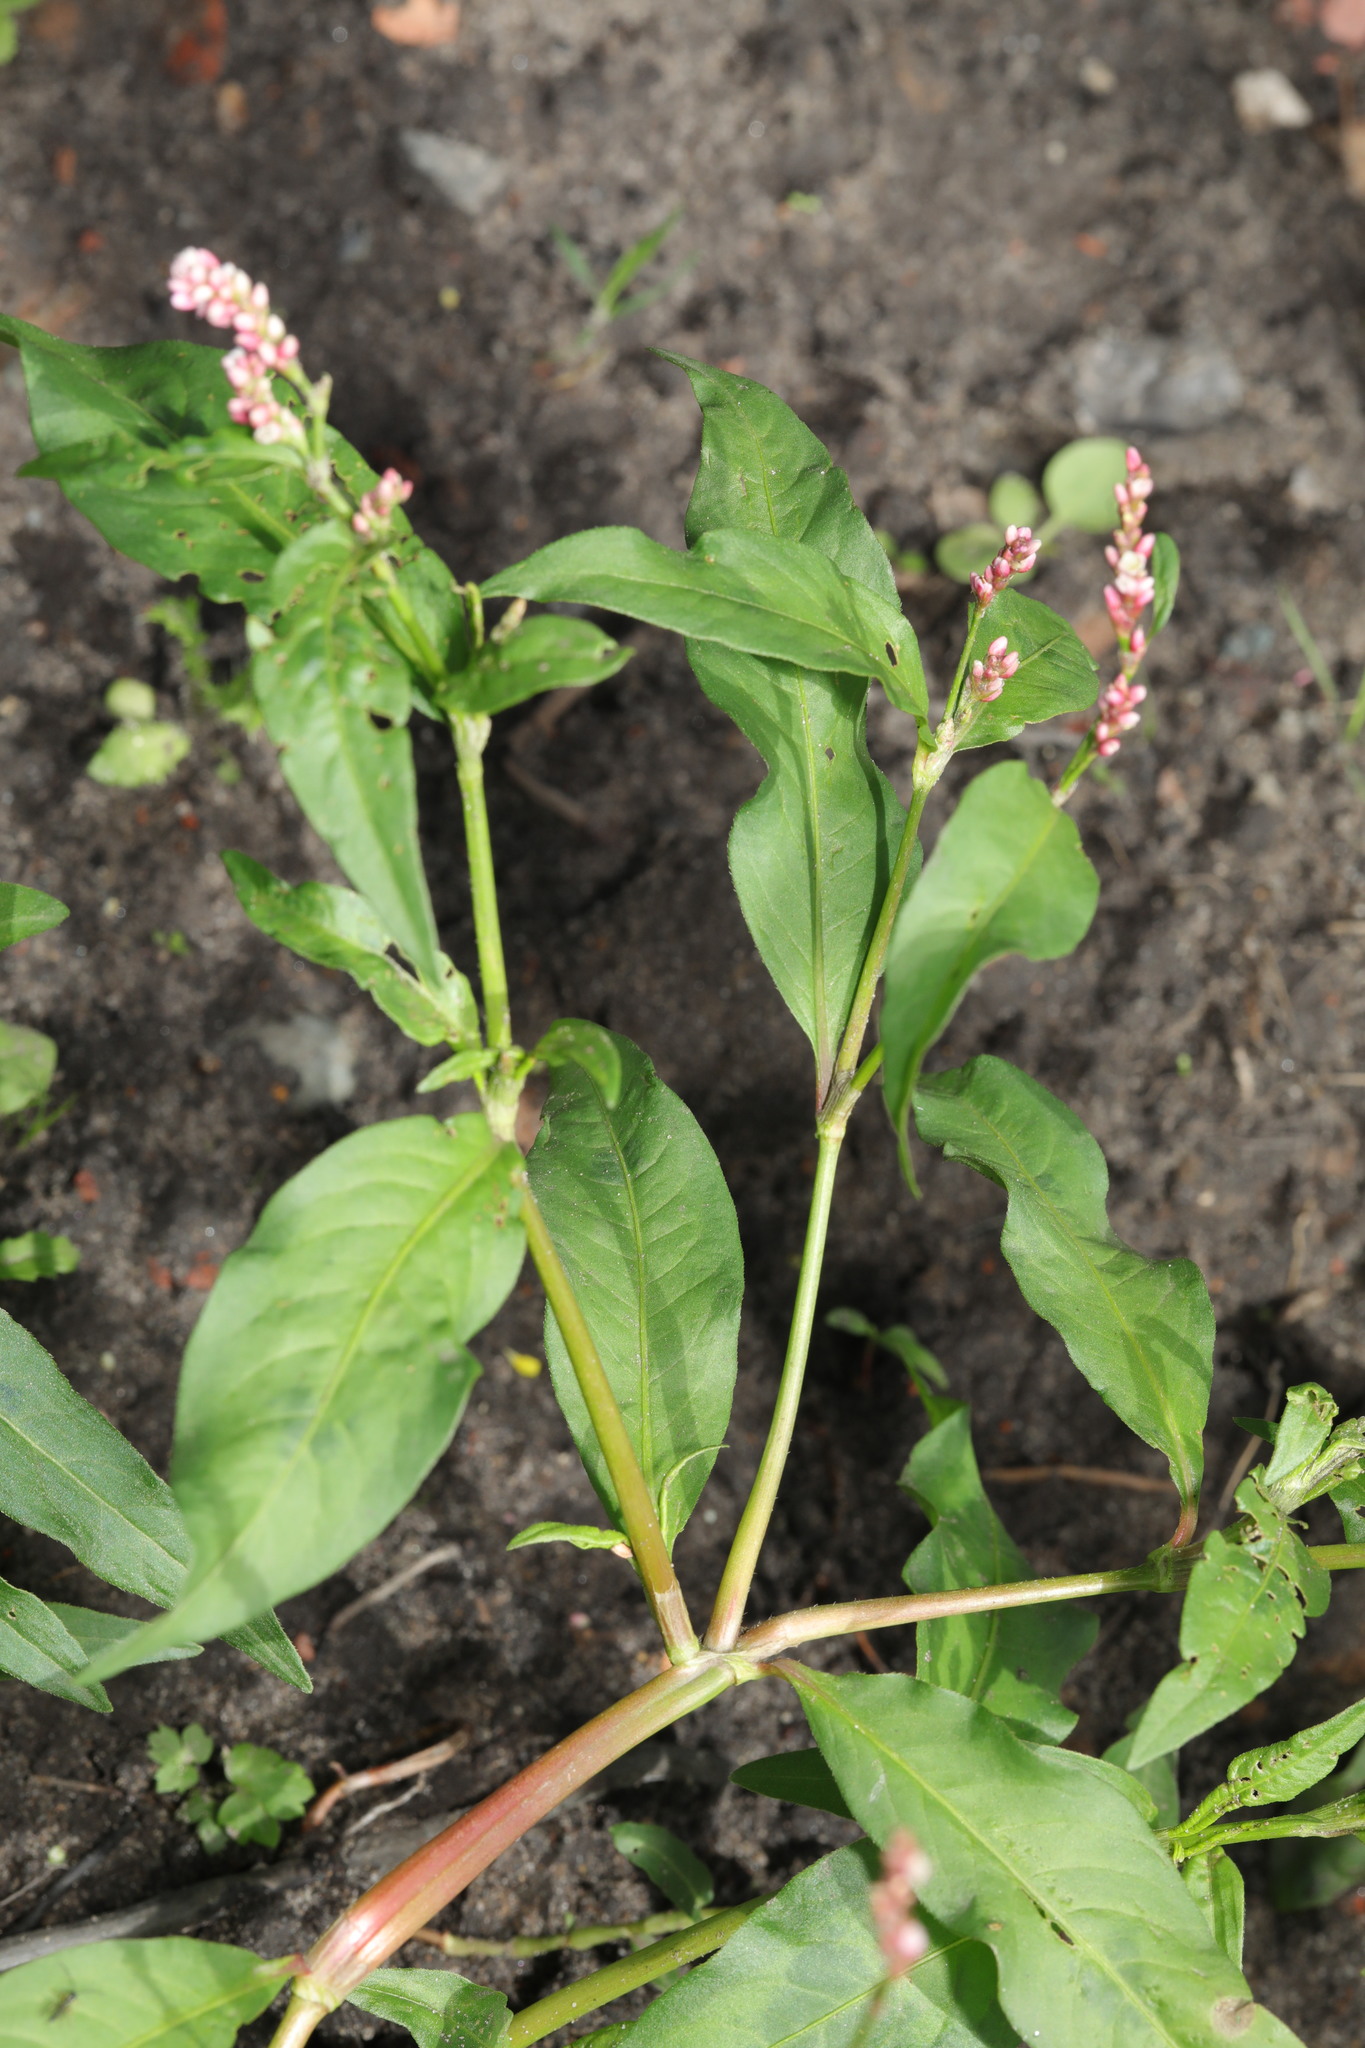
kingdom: Plantae
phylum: Tracheophyta
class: Magnoliopsida
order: Caryophyllales
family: Polygonaceae
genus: Persicaria
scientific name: Persicaria maculosa
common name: Redshank
